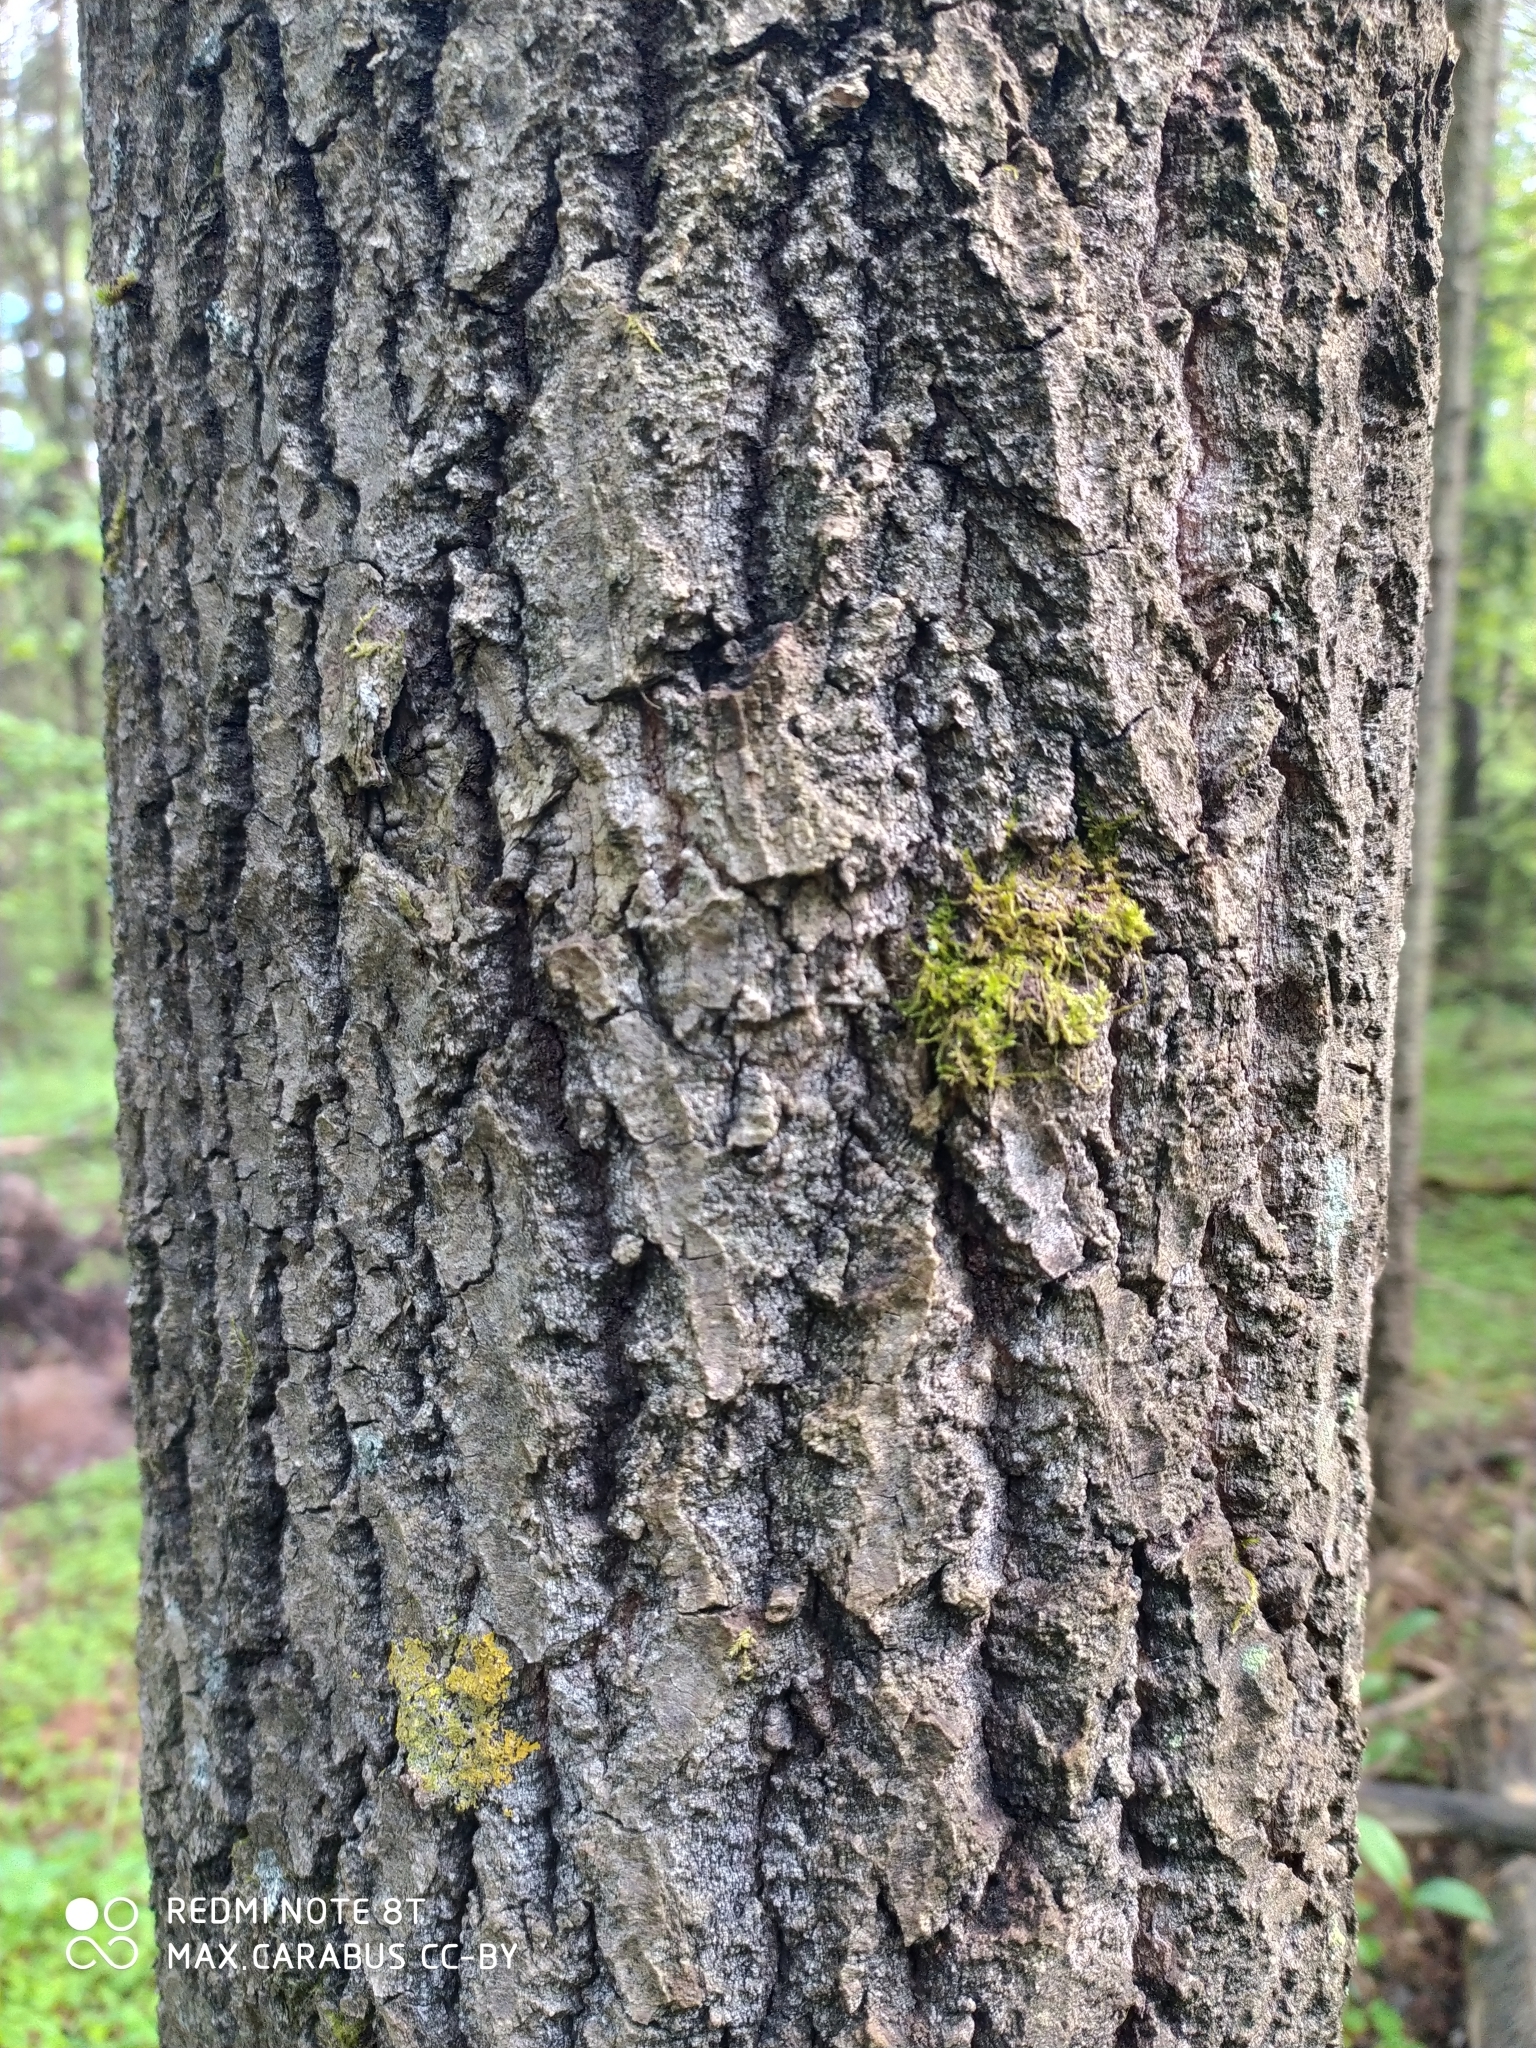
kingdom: Plantae
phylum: Tracheophyta
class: Magnoliopsida
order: Malpighiales
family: Salicaceae
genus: Populus
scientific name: Populus tremula
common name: European aspen
